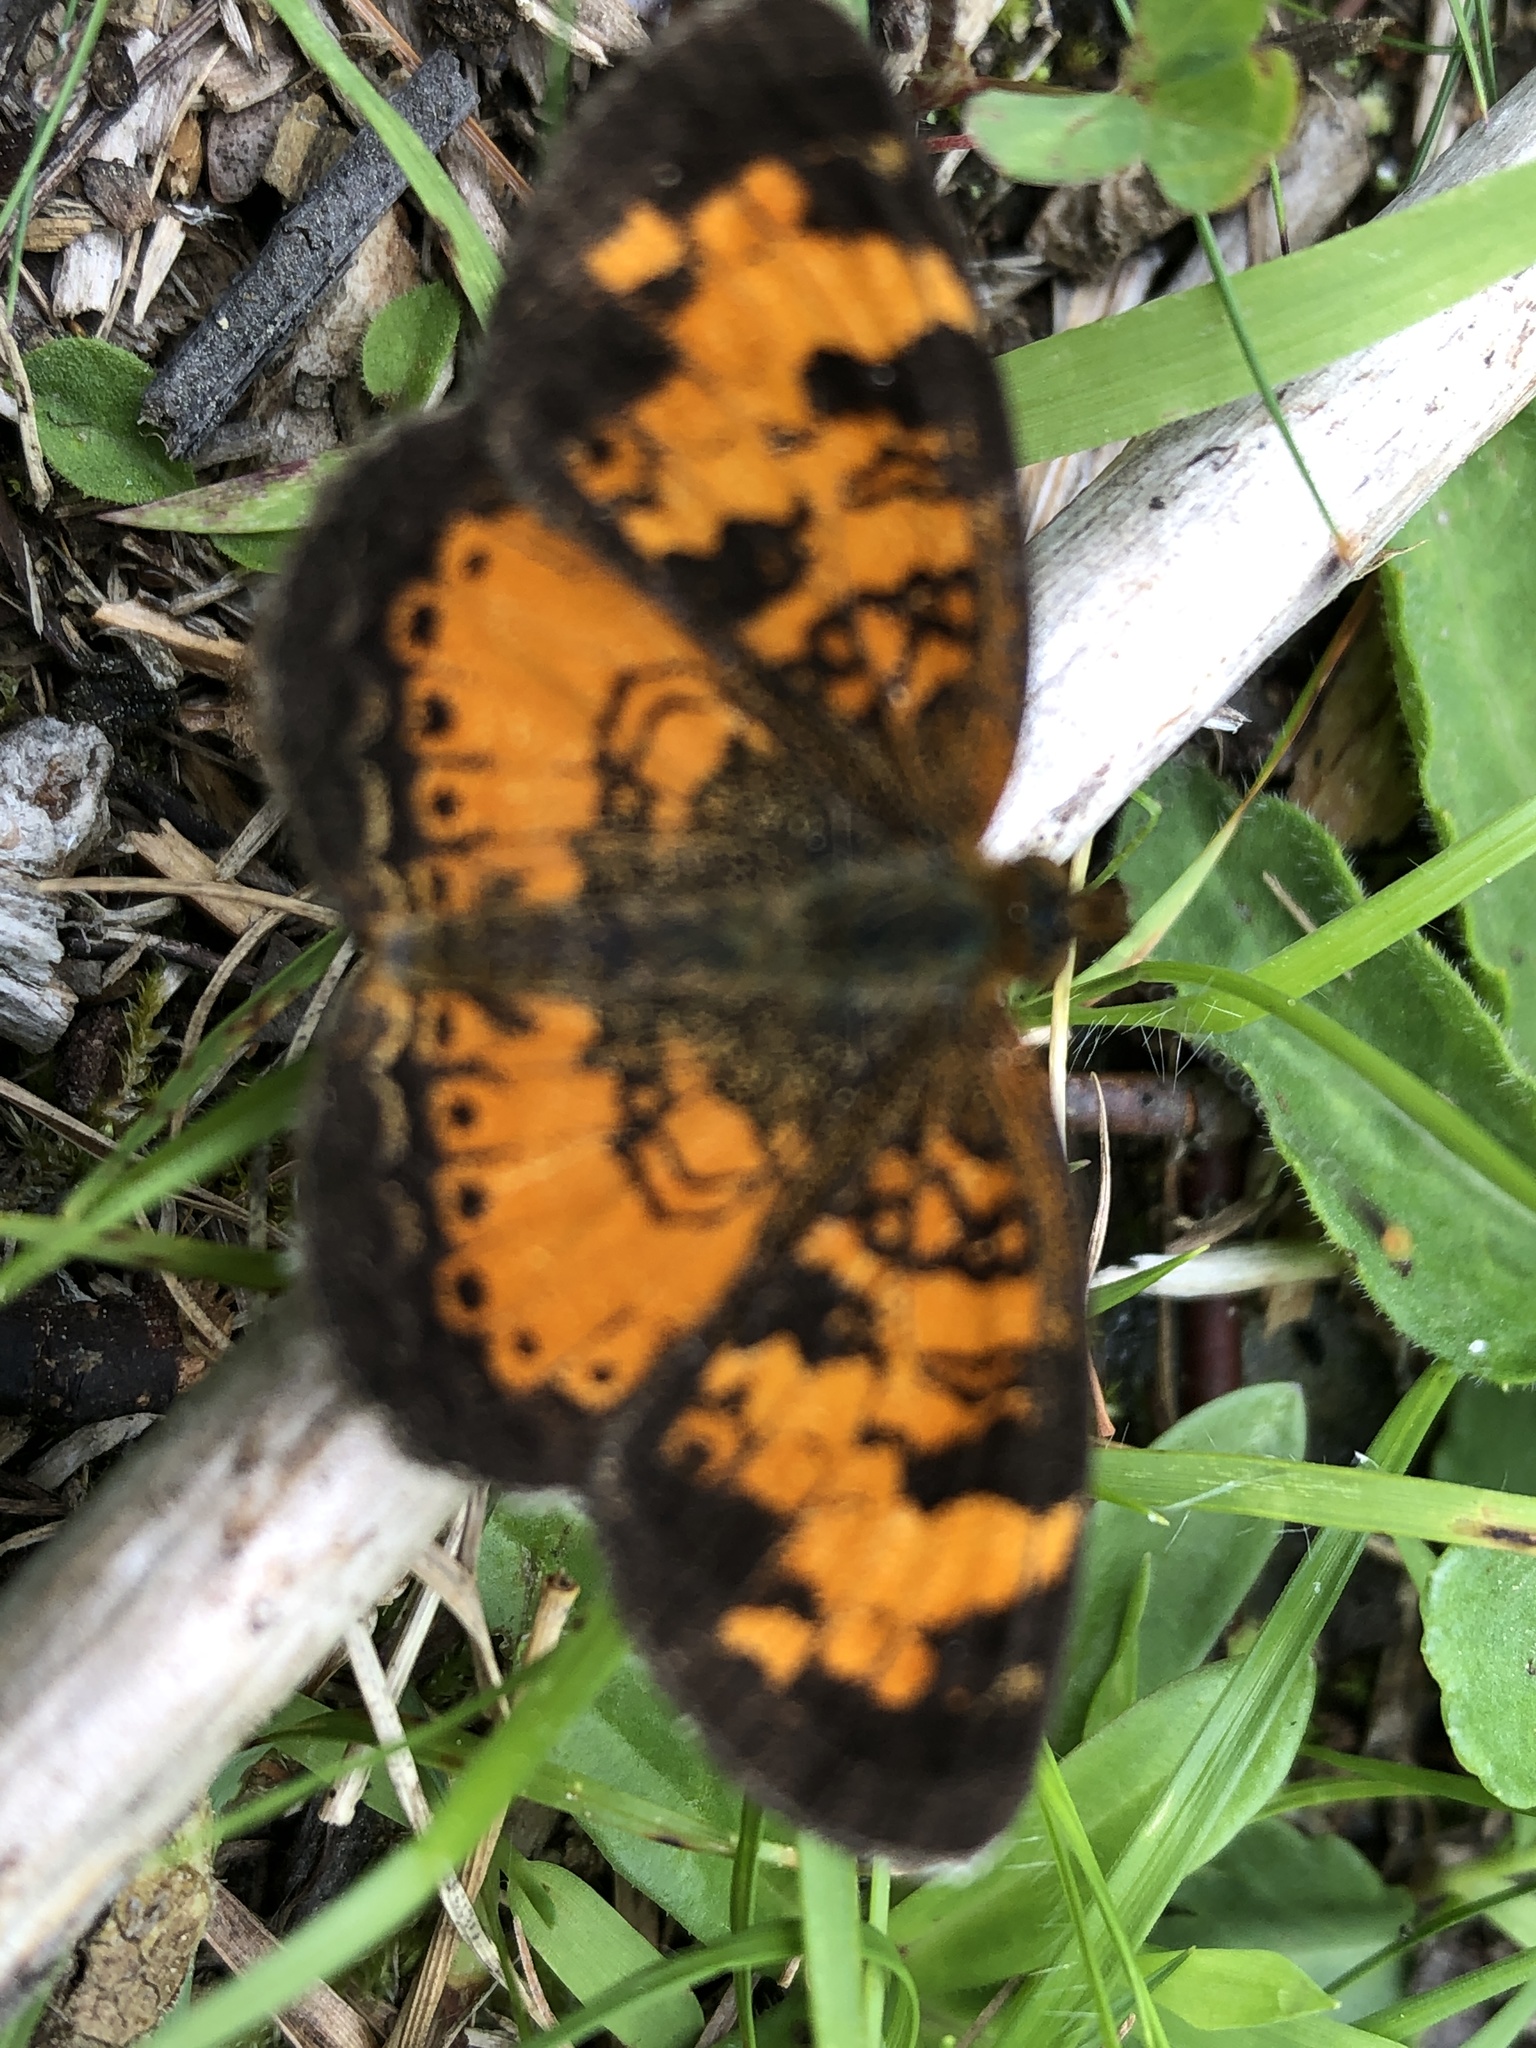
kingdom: Animalia
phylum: Arthropoda
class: Insecta
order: Lepidoptera
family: Nymphalidae
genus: Phyciodes
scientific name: Phyciodes tharos
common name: Pearl crescent
